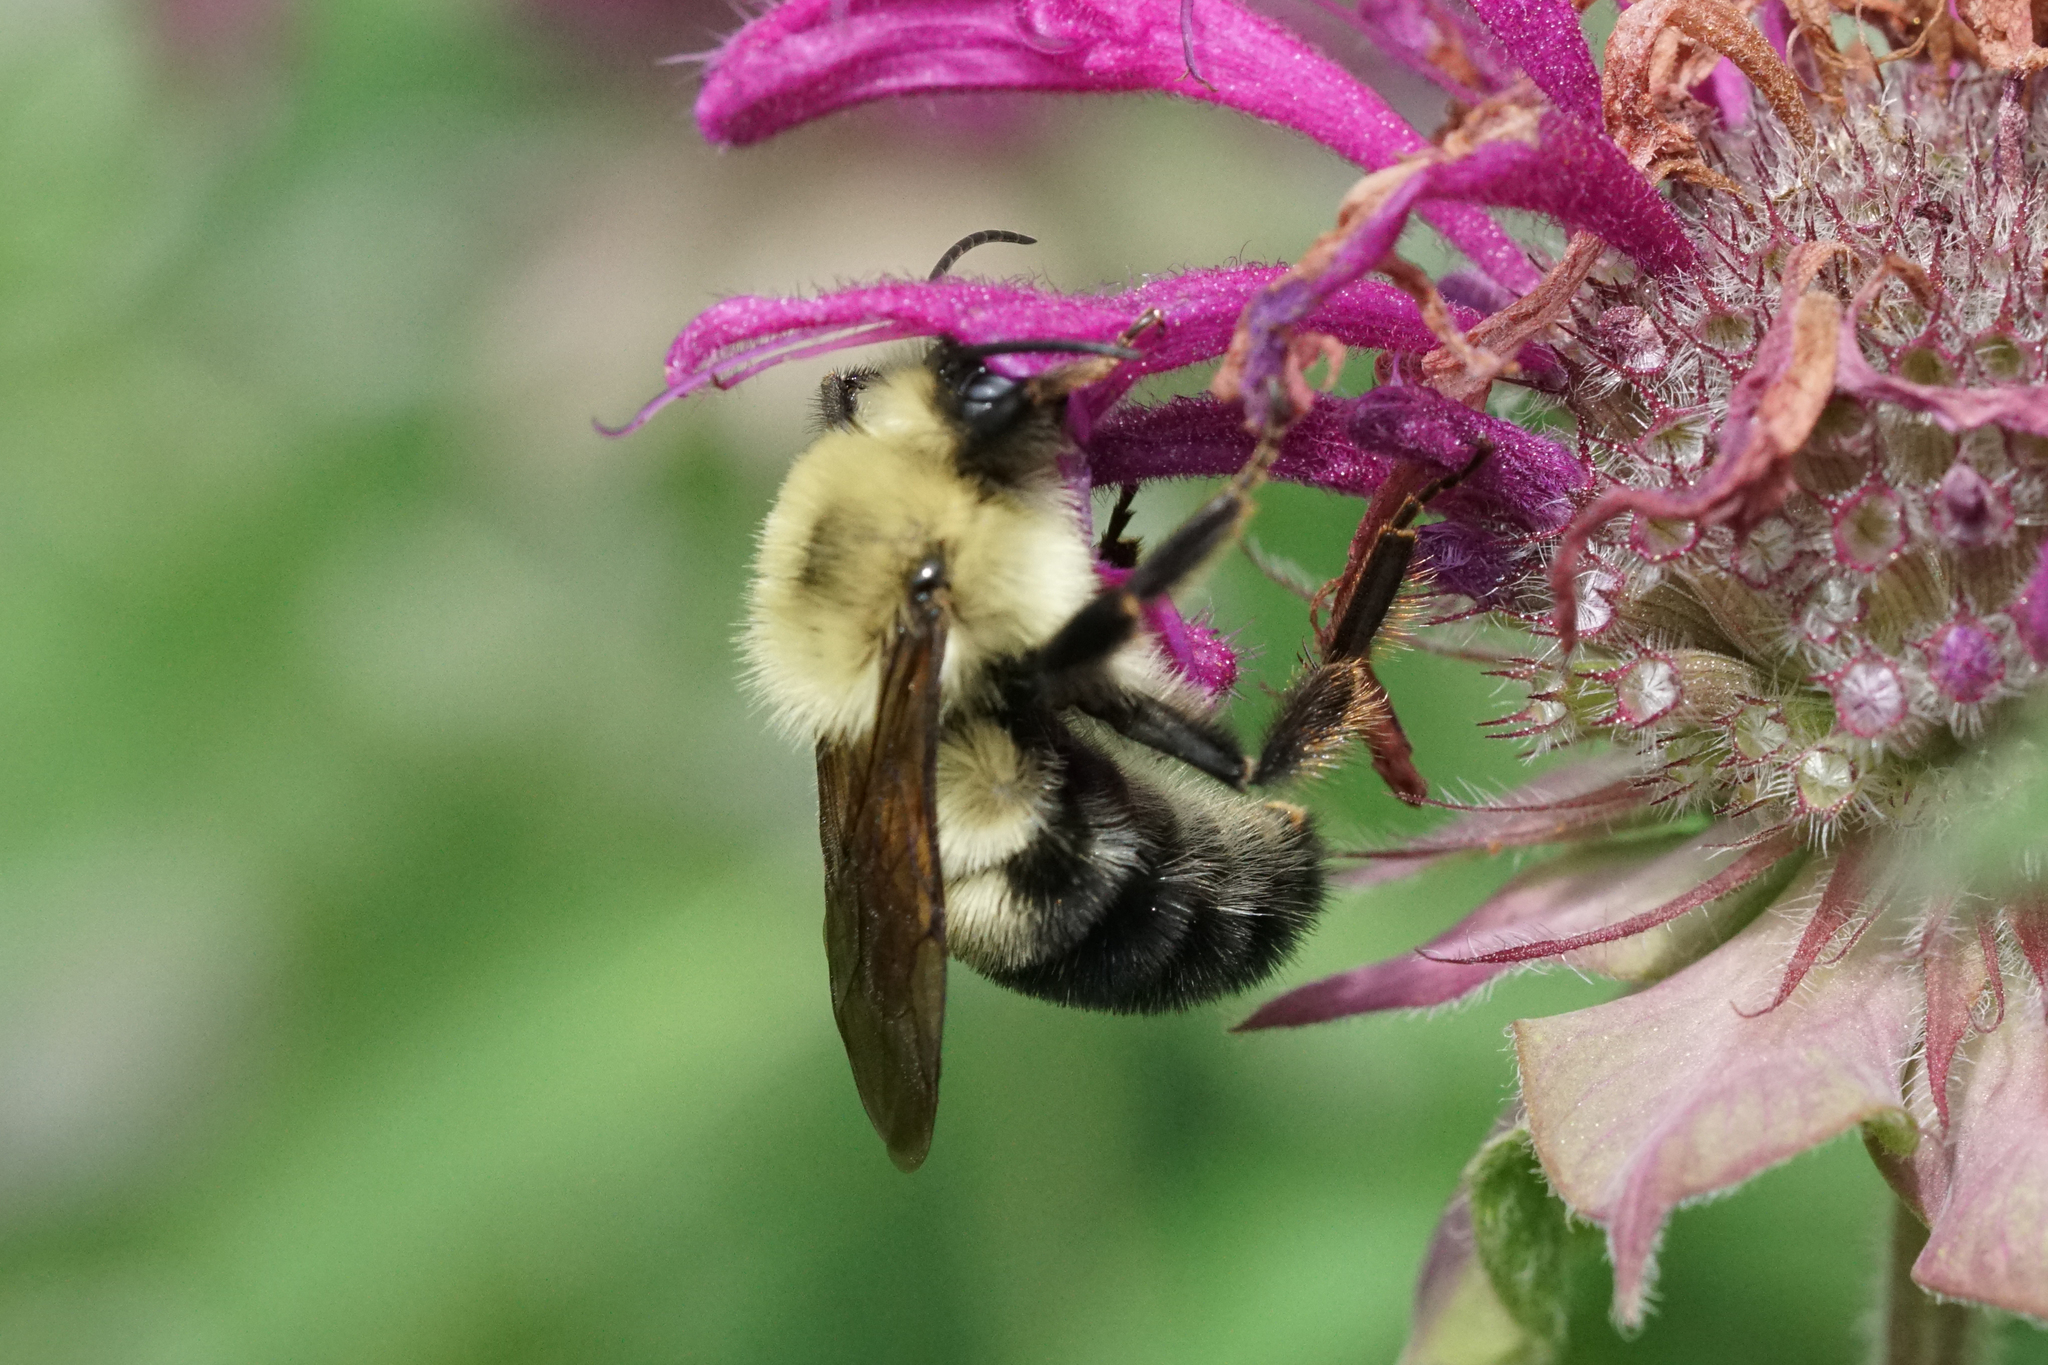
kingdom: Animalia
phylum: Arthropoda
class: Insecta
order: Hymenoptera
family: Apidae
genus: Bombus
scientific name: Bombus bimaculatus
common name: Two-spotted bumble bee
